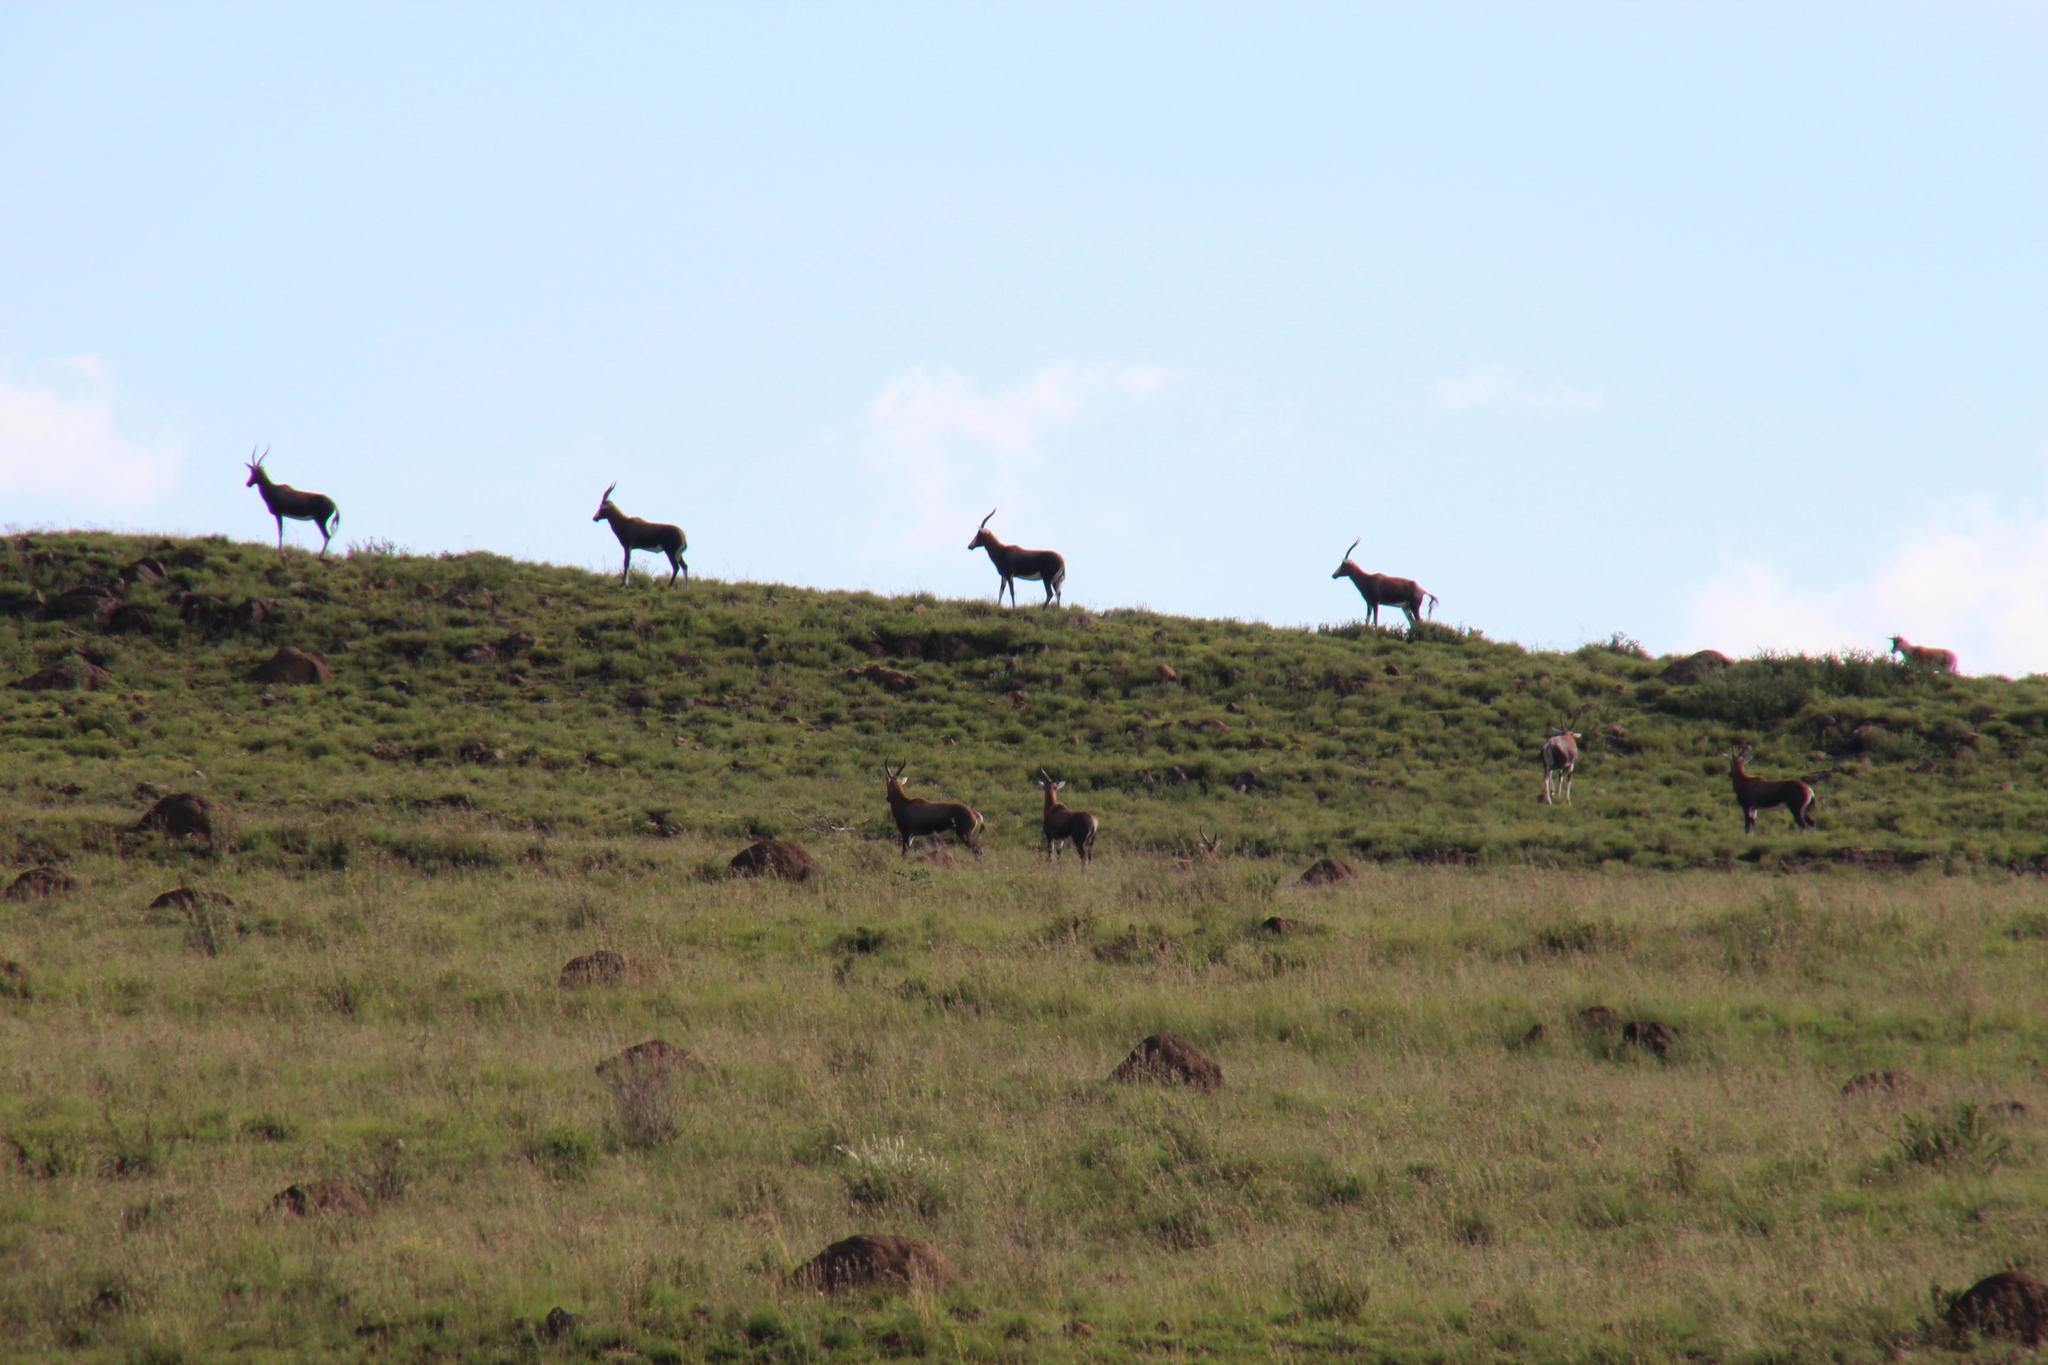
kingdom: Animalia
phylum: Chordata
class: Mammalia
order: Artiodactyla
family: Bovidae
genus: Damaliscus
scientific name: Damaliscus pygargus
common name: Bontebok
